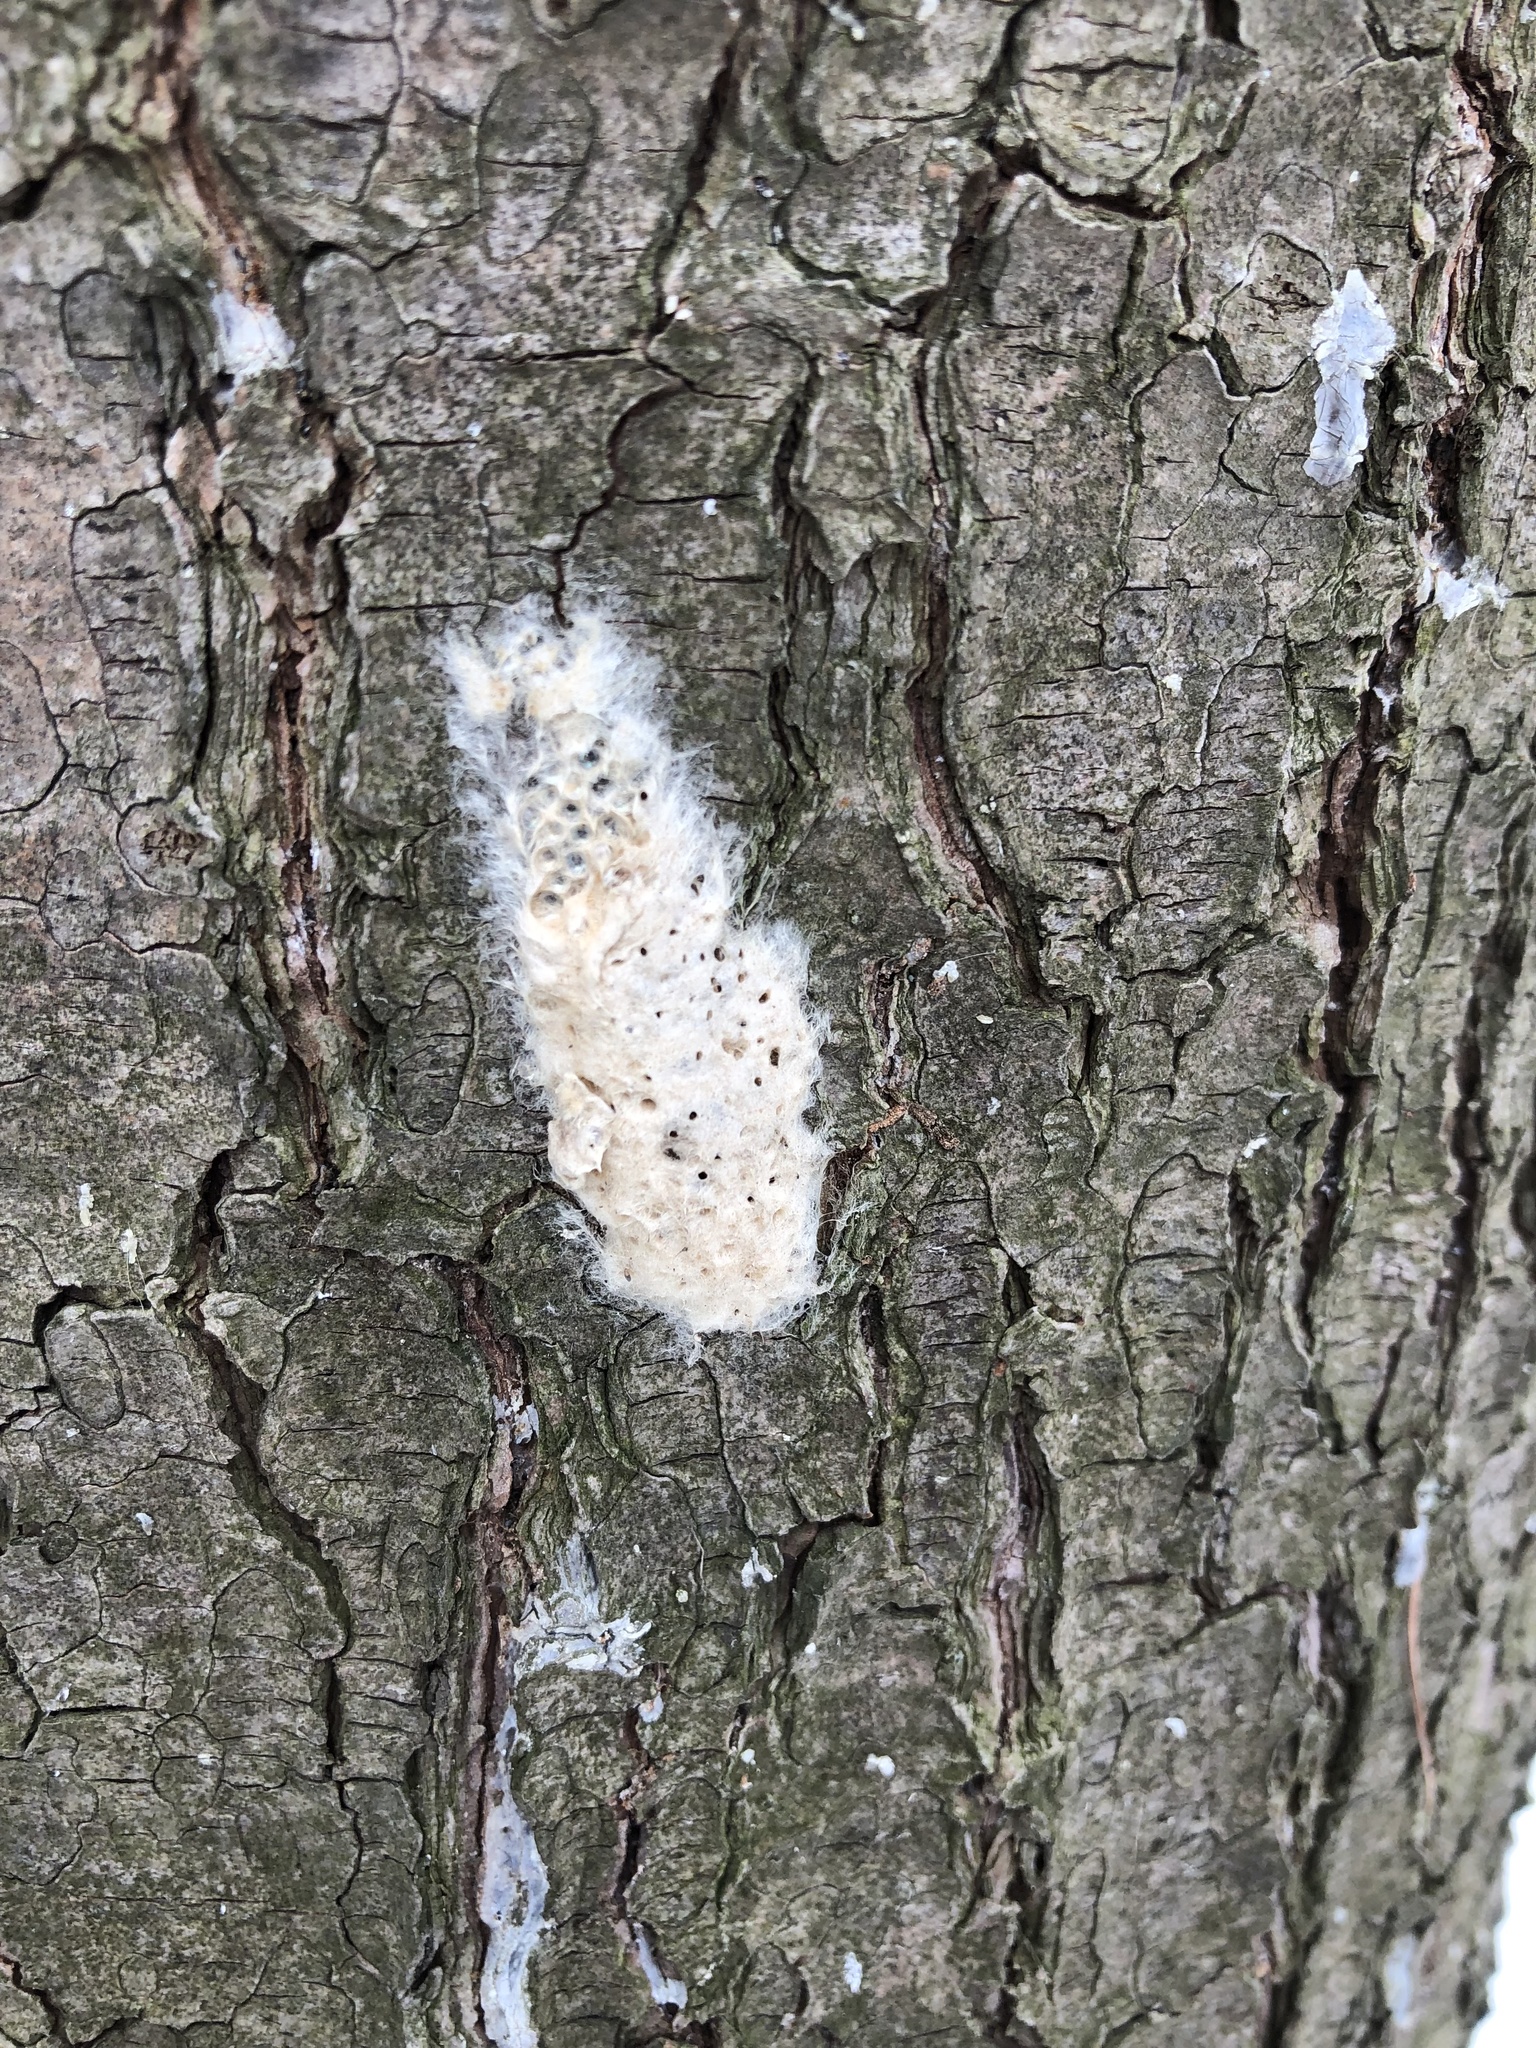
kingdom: Animalia
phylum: Arthropoda
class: Insecta
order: Lepidoptera
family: Erebidae
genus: Lymantria
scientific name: Lymantria dispar
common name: Gypsy moth
